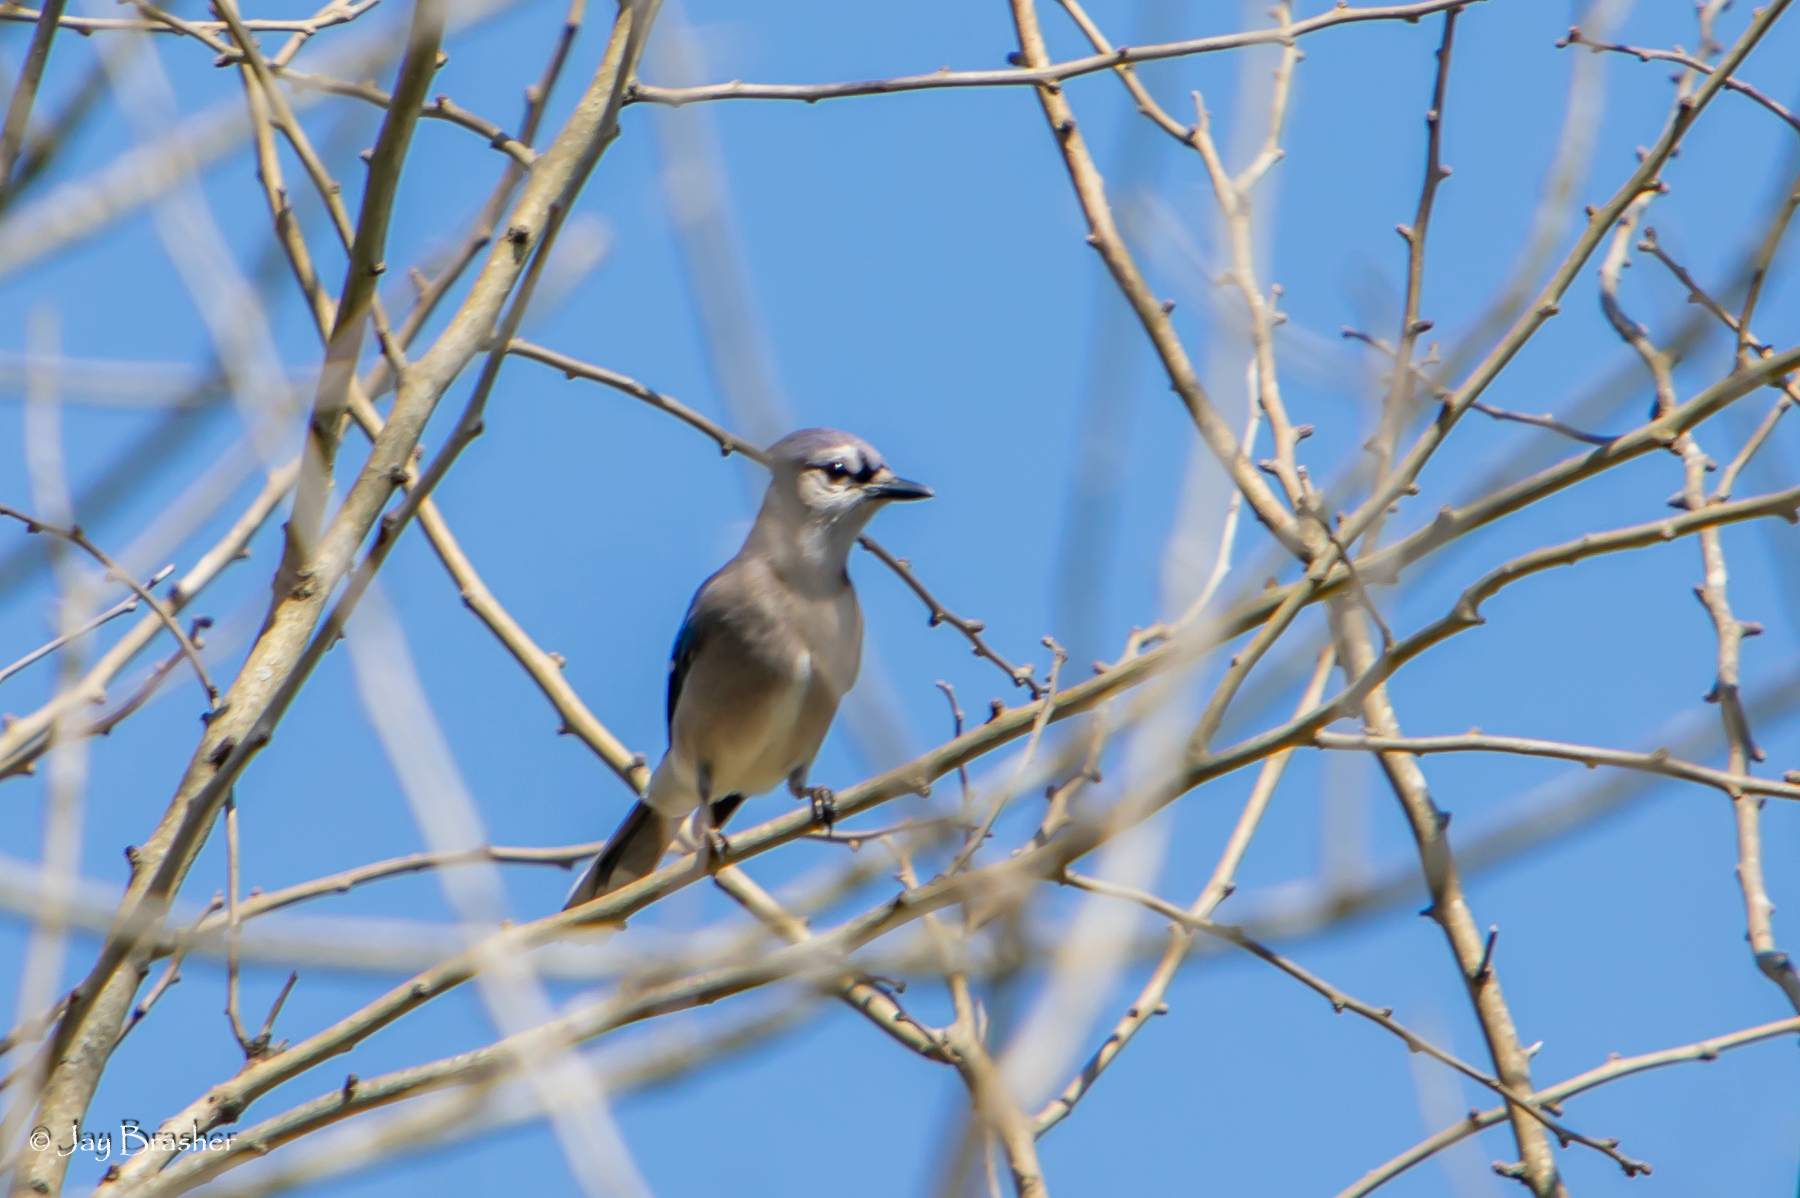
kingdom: Animalia
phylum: Chordata
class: Aves
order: Passeriformes
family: Corvidae
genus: Cyanocitta
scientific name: Cyanocitta cristata
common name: Blue jay
